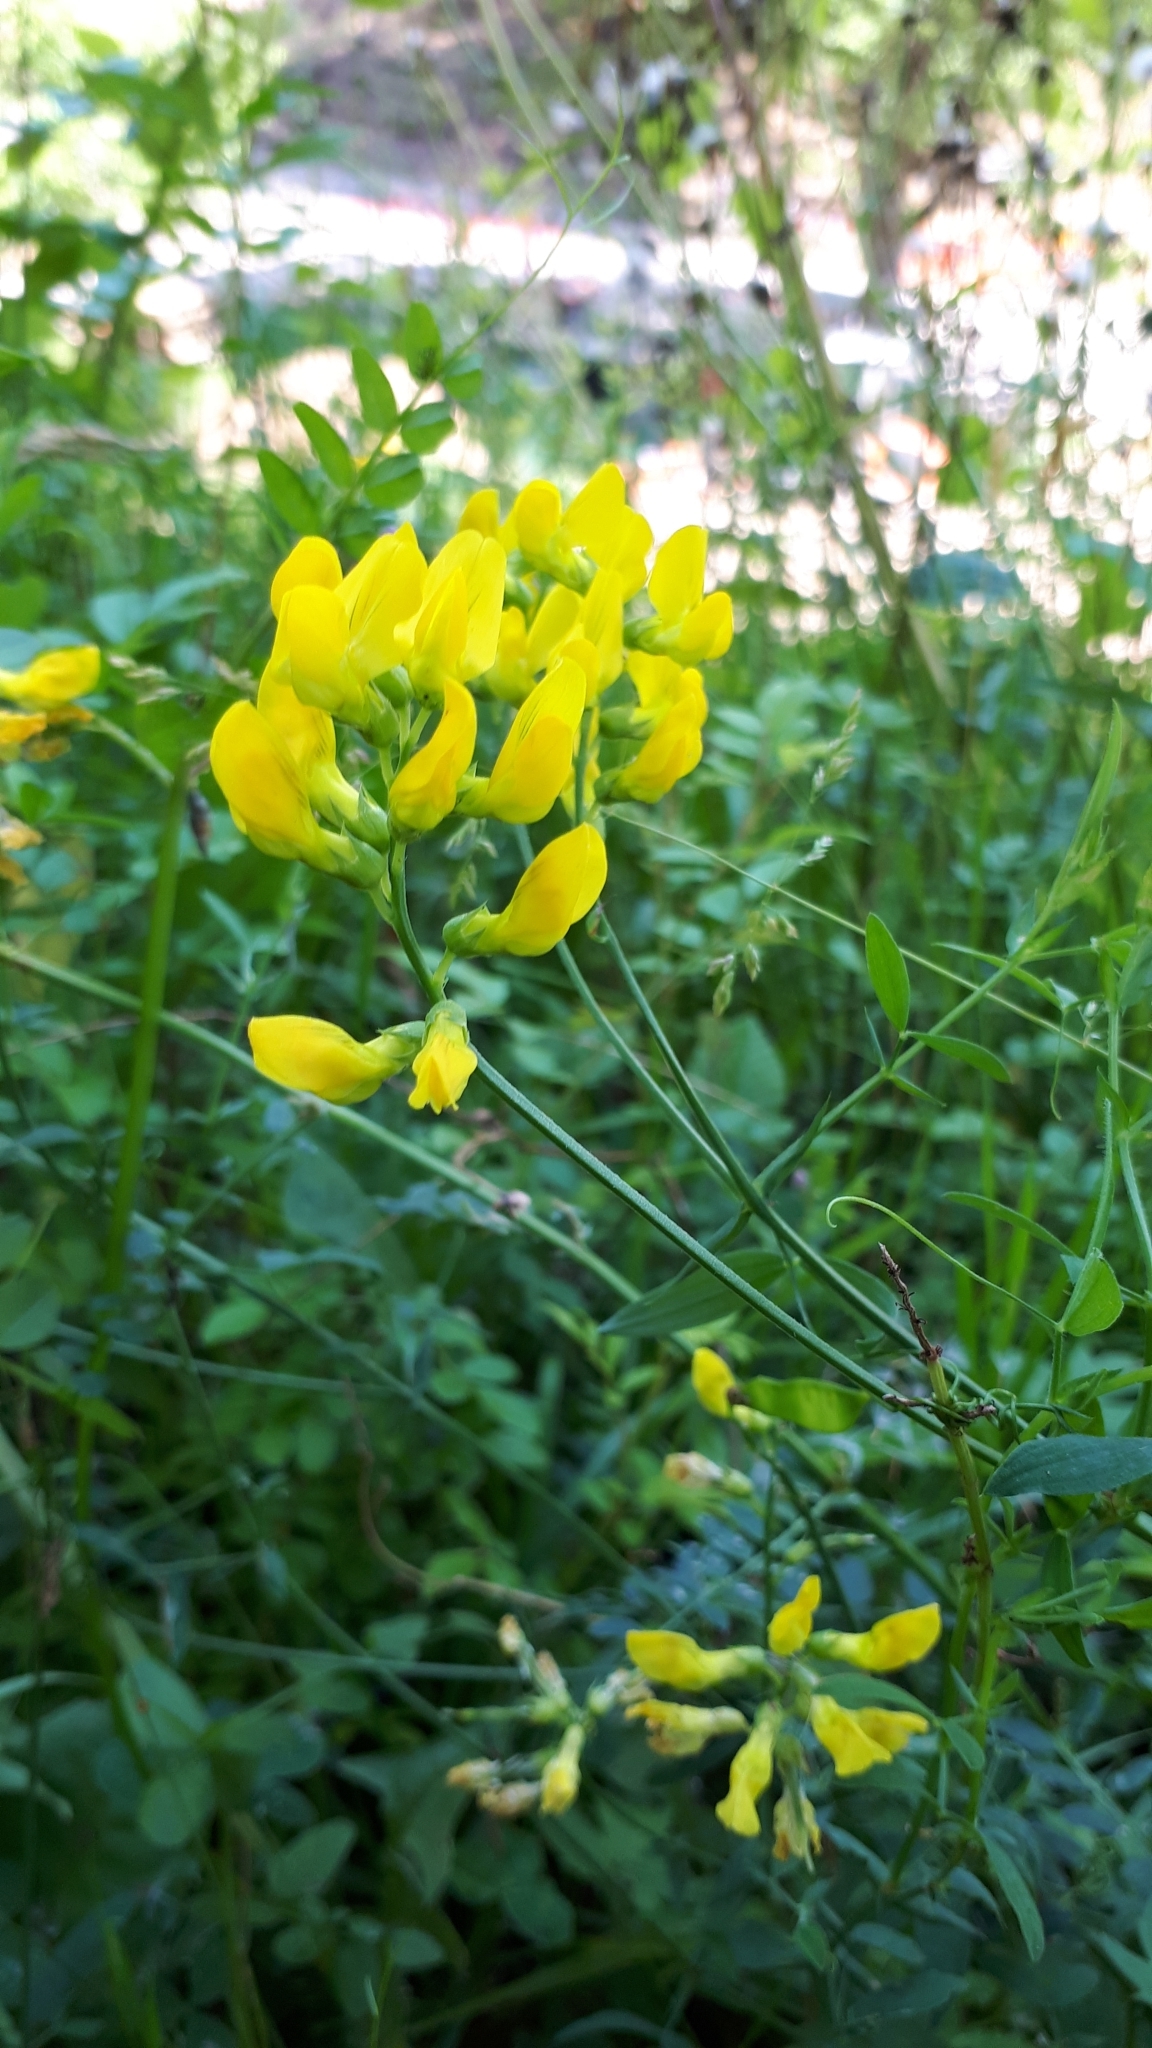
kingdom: Plantae
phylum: Tracheophyta
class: Magnoliopsida
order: Fabales
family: Fabaceae
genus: Lathyrus
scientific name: Lathyrus pratensis
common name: Meadow vetchling
